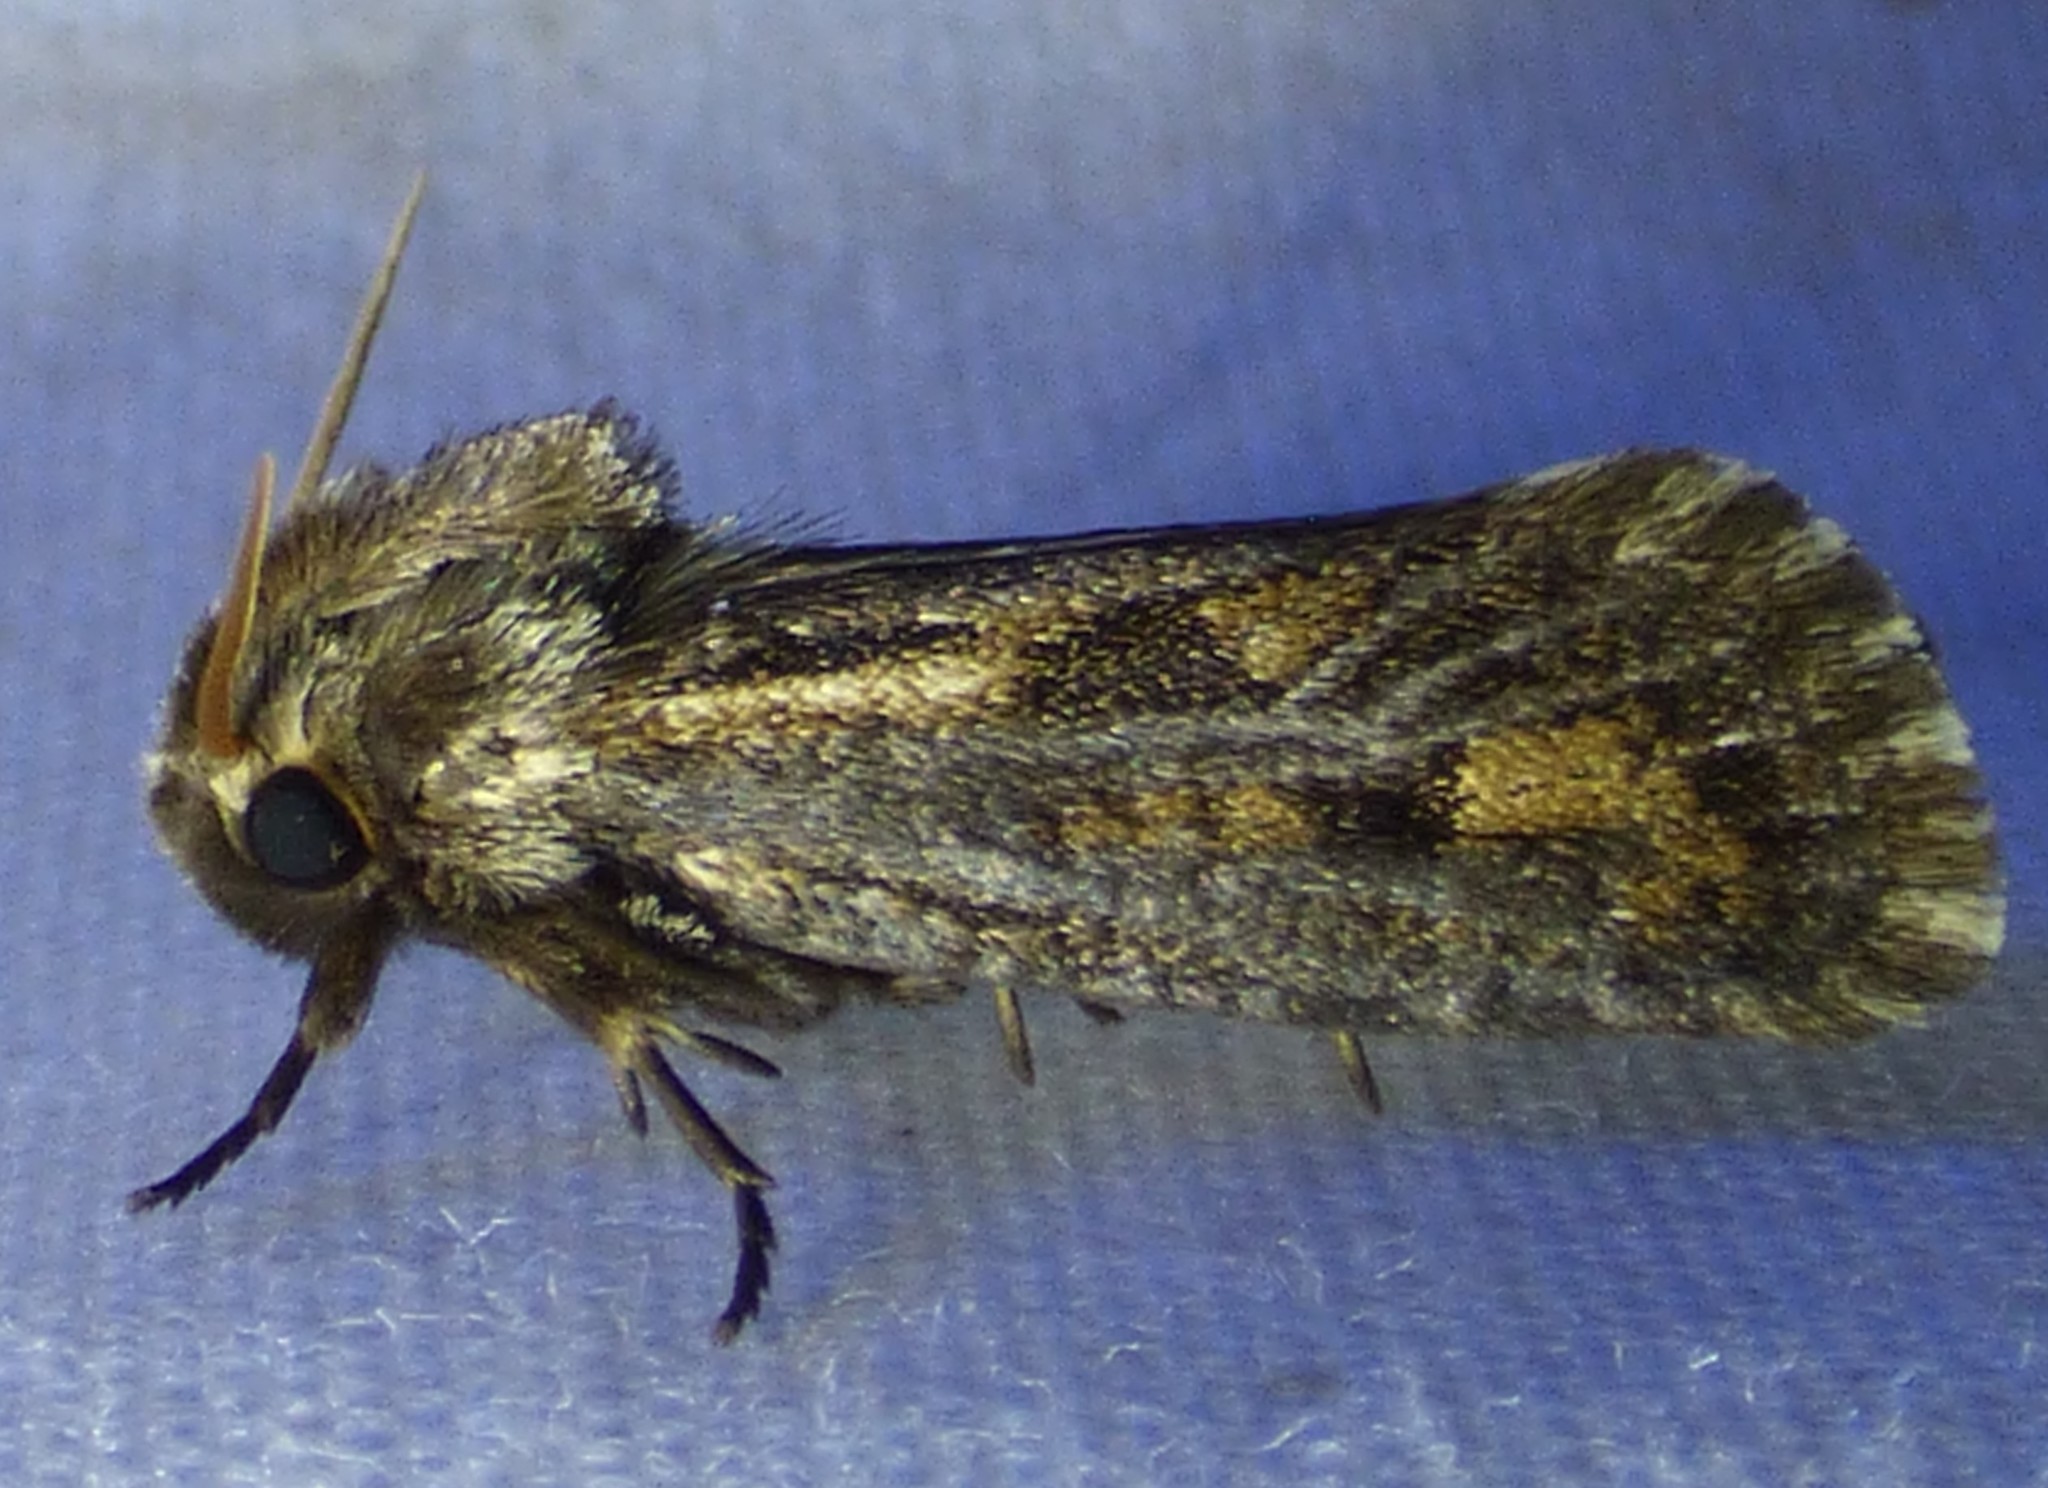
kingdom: Animalia
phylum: Arthropoda
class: Insecta
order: Lepidoptera
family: Tineidae
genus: Acrolophus
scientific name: Acrolophus popeanella
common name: Clemens' grass tubeworm moth
